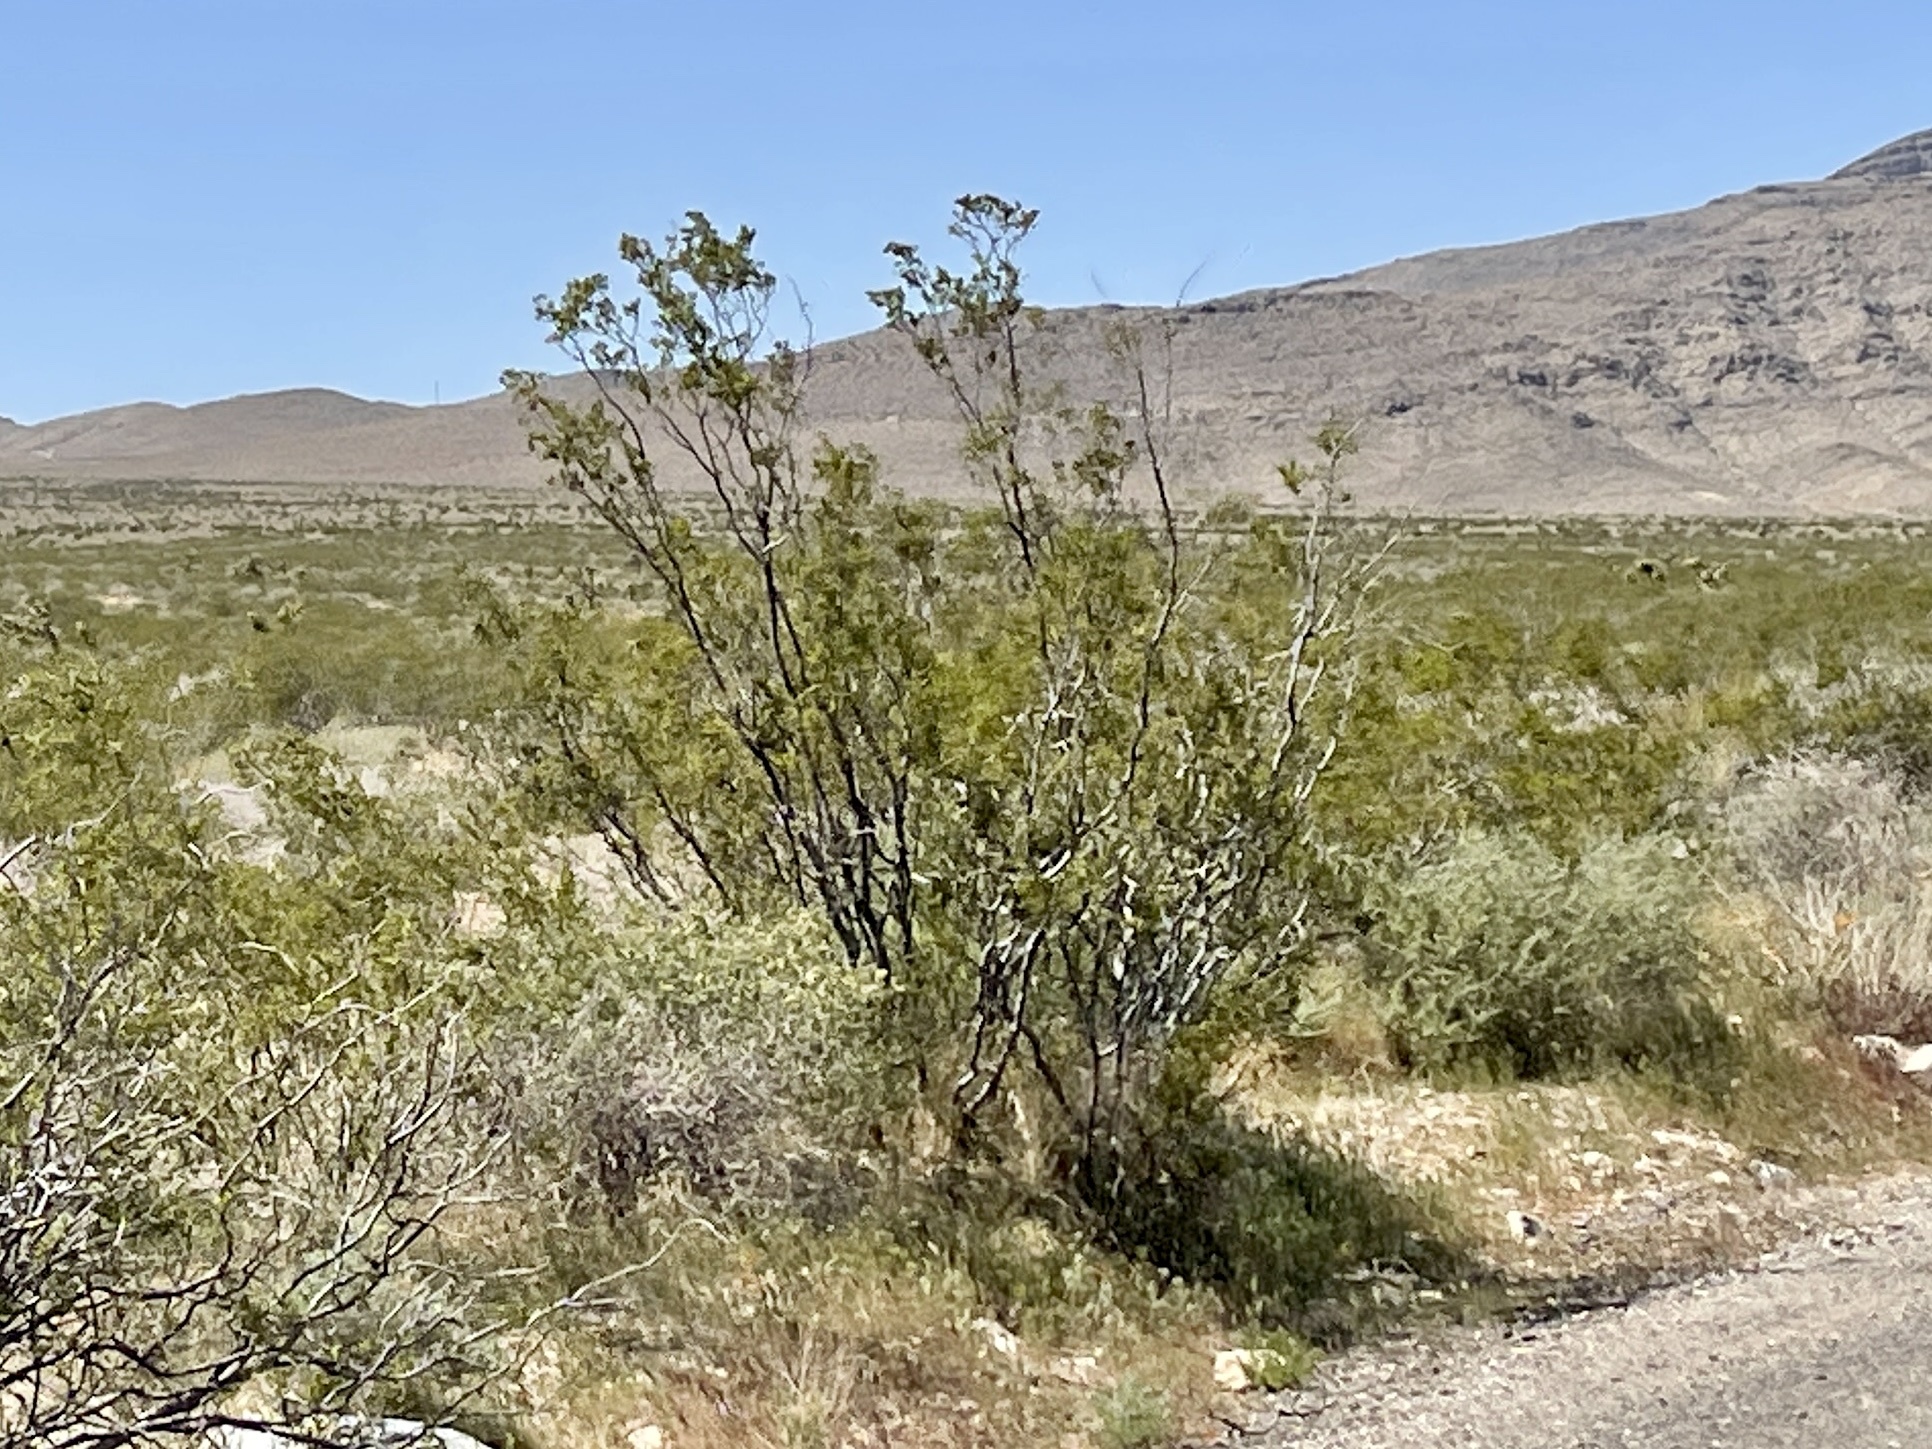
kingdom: Plantae
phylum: Tracheophyta
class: Magnoliopsida
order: Zygophyllales
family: Zygophyllaceae
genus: Larrea
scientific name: Larrea tridentata
